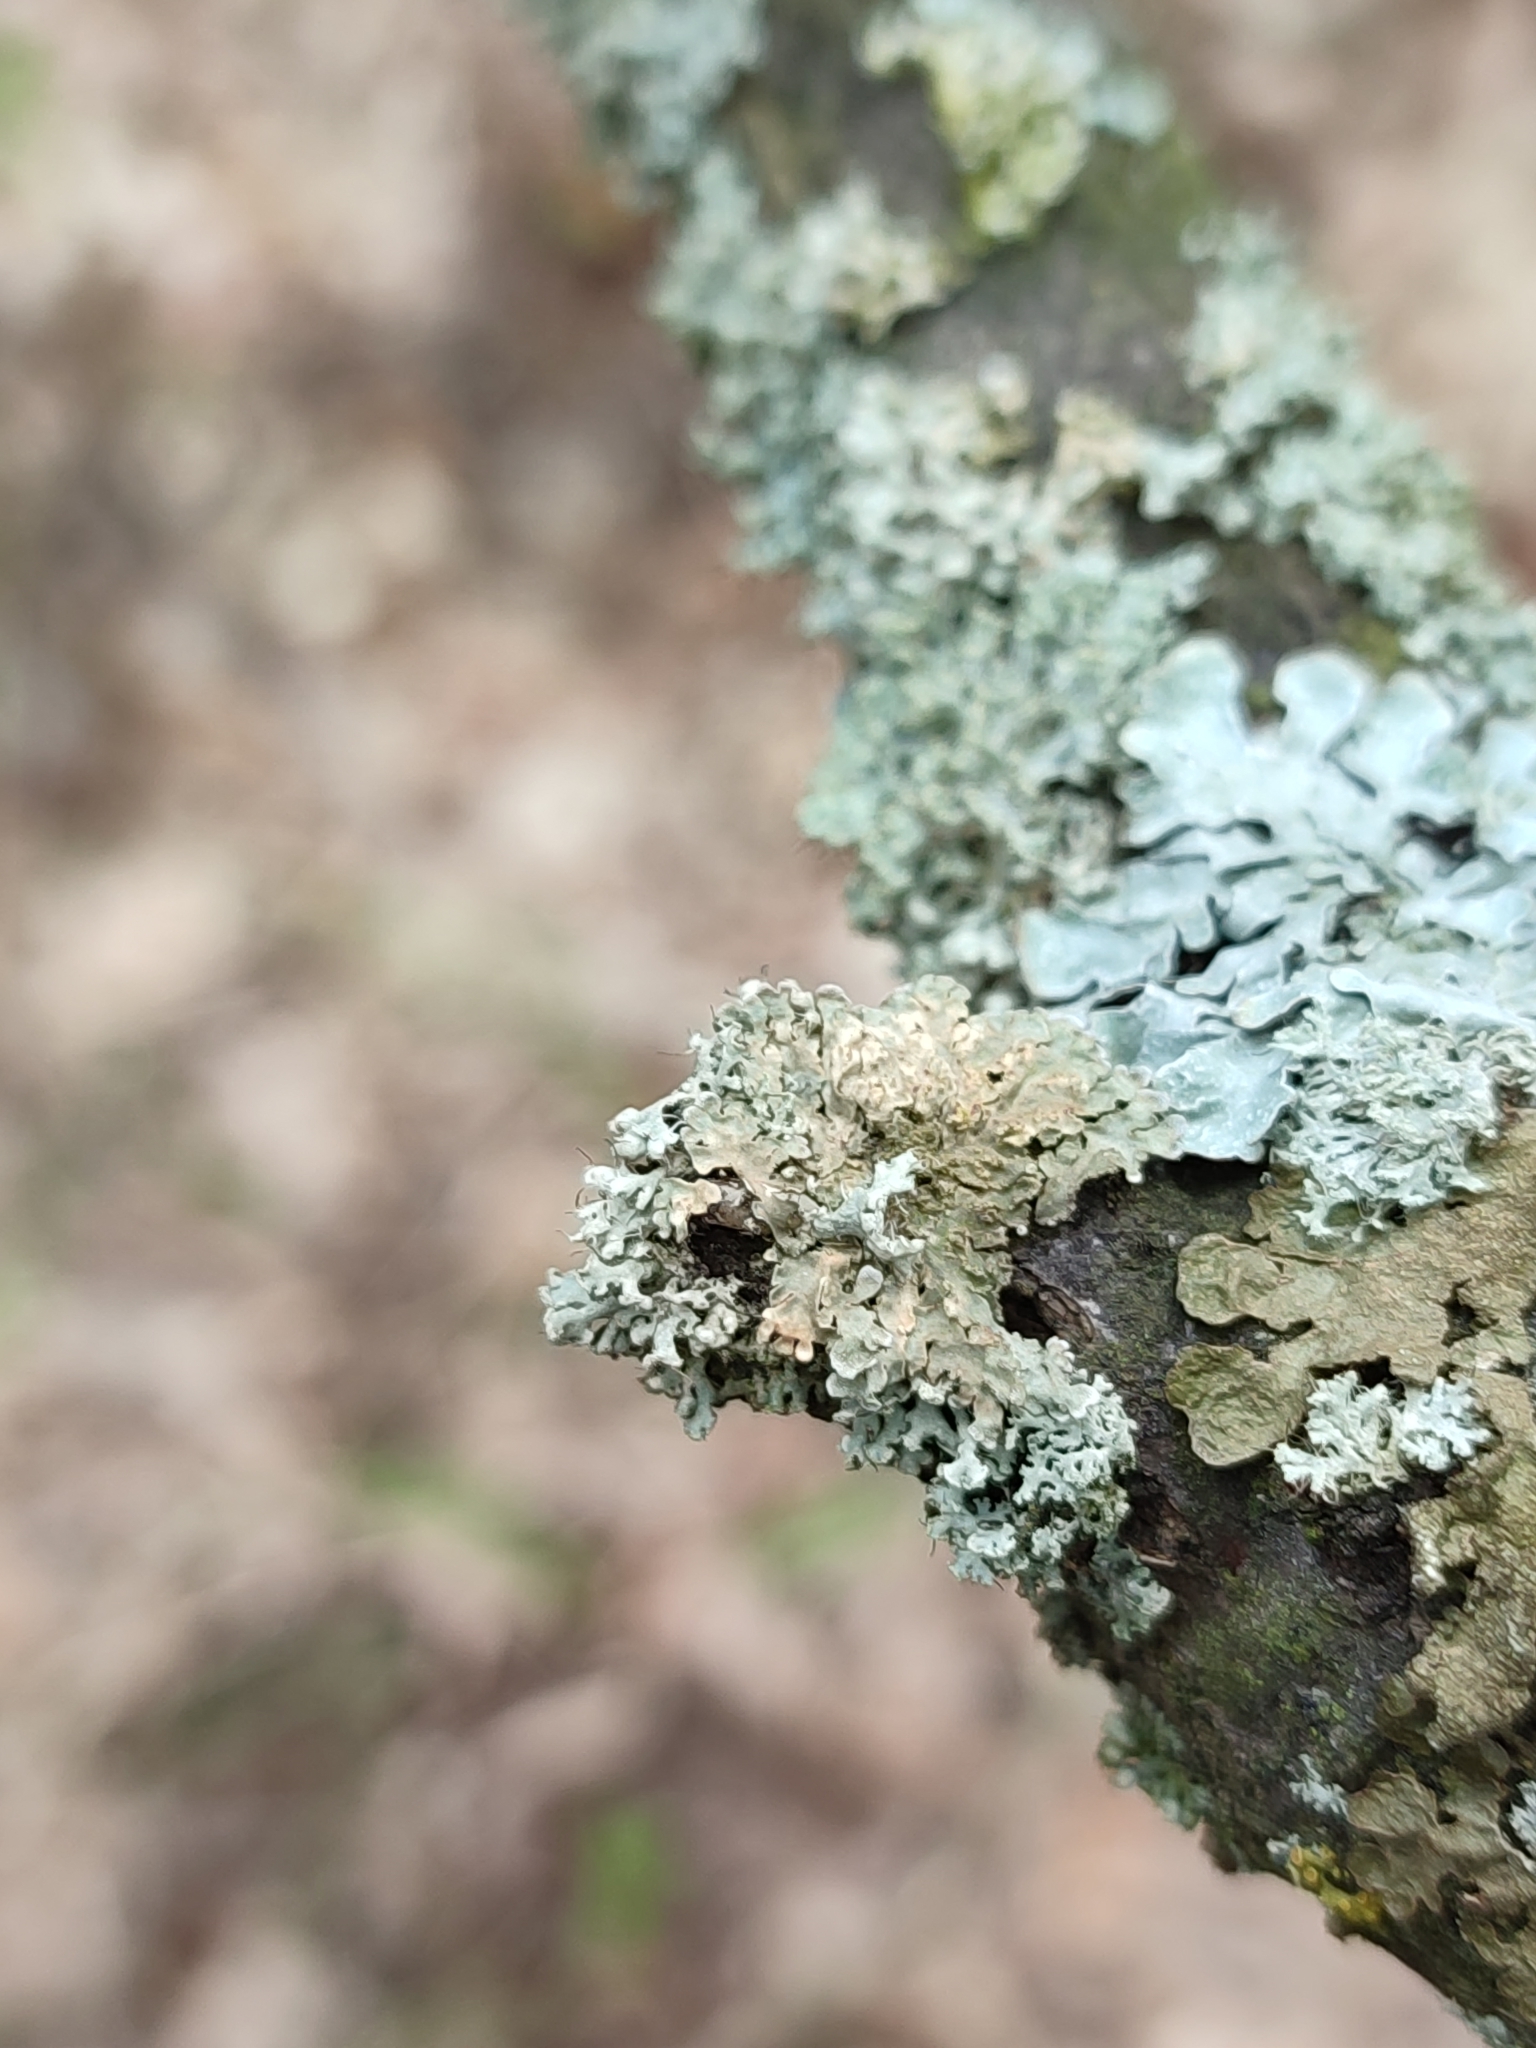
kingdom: Fungi
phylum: Ascomycota
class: Lecanoromycetes
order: Caliciales
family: Physciaceae
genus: Physconia
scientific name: Physconia enteroxantha
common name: Yellow-edged frost lichen
